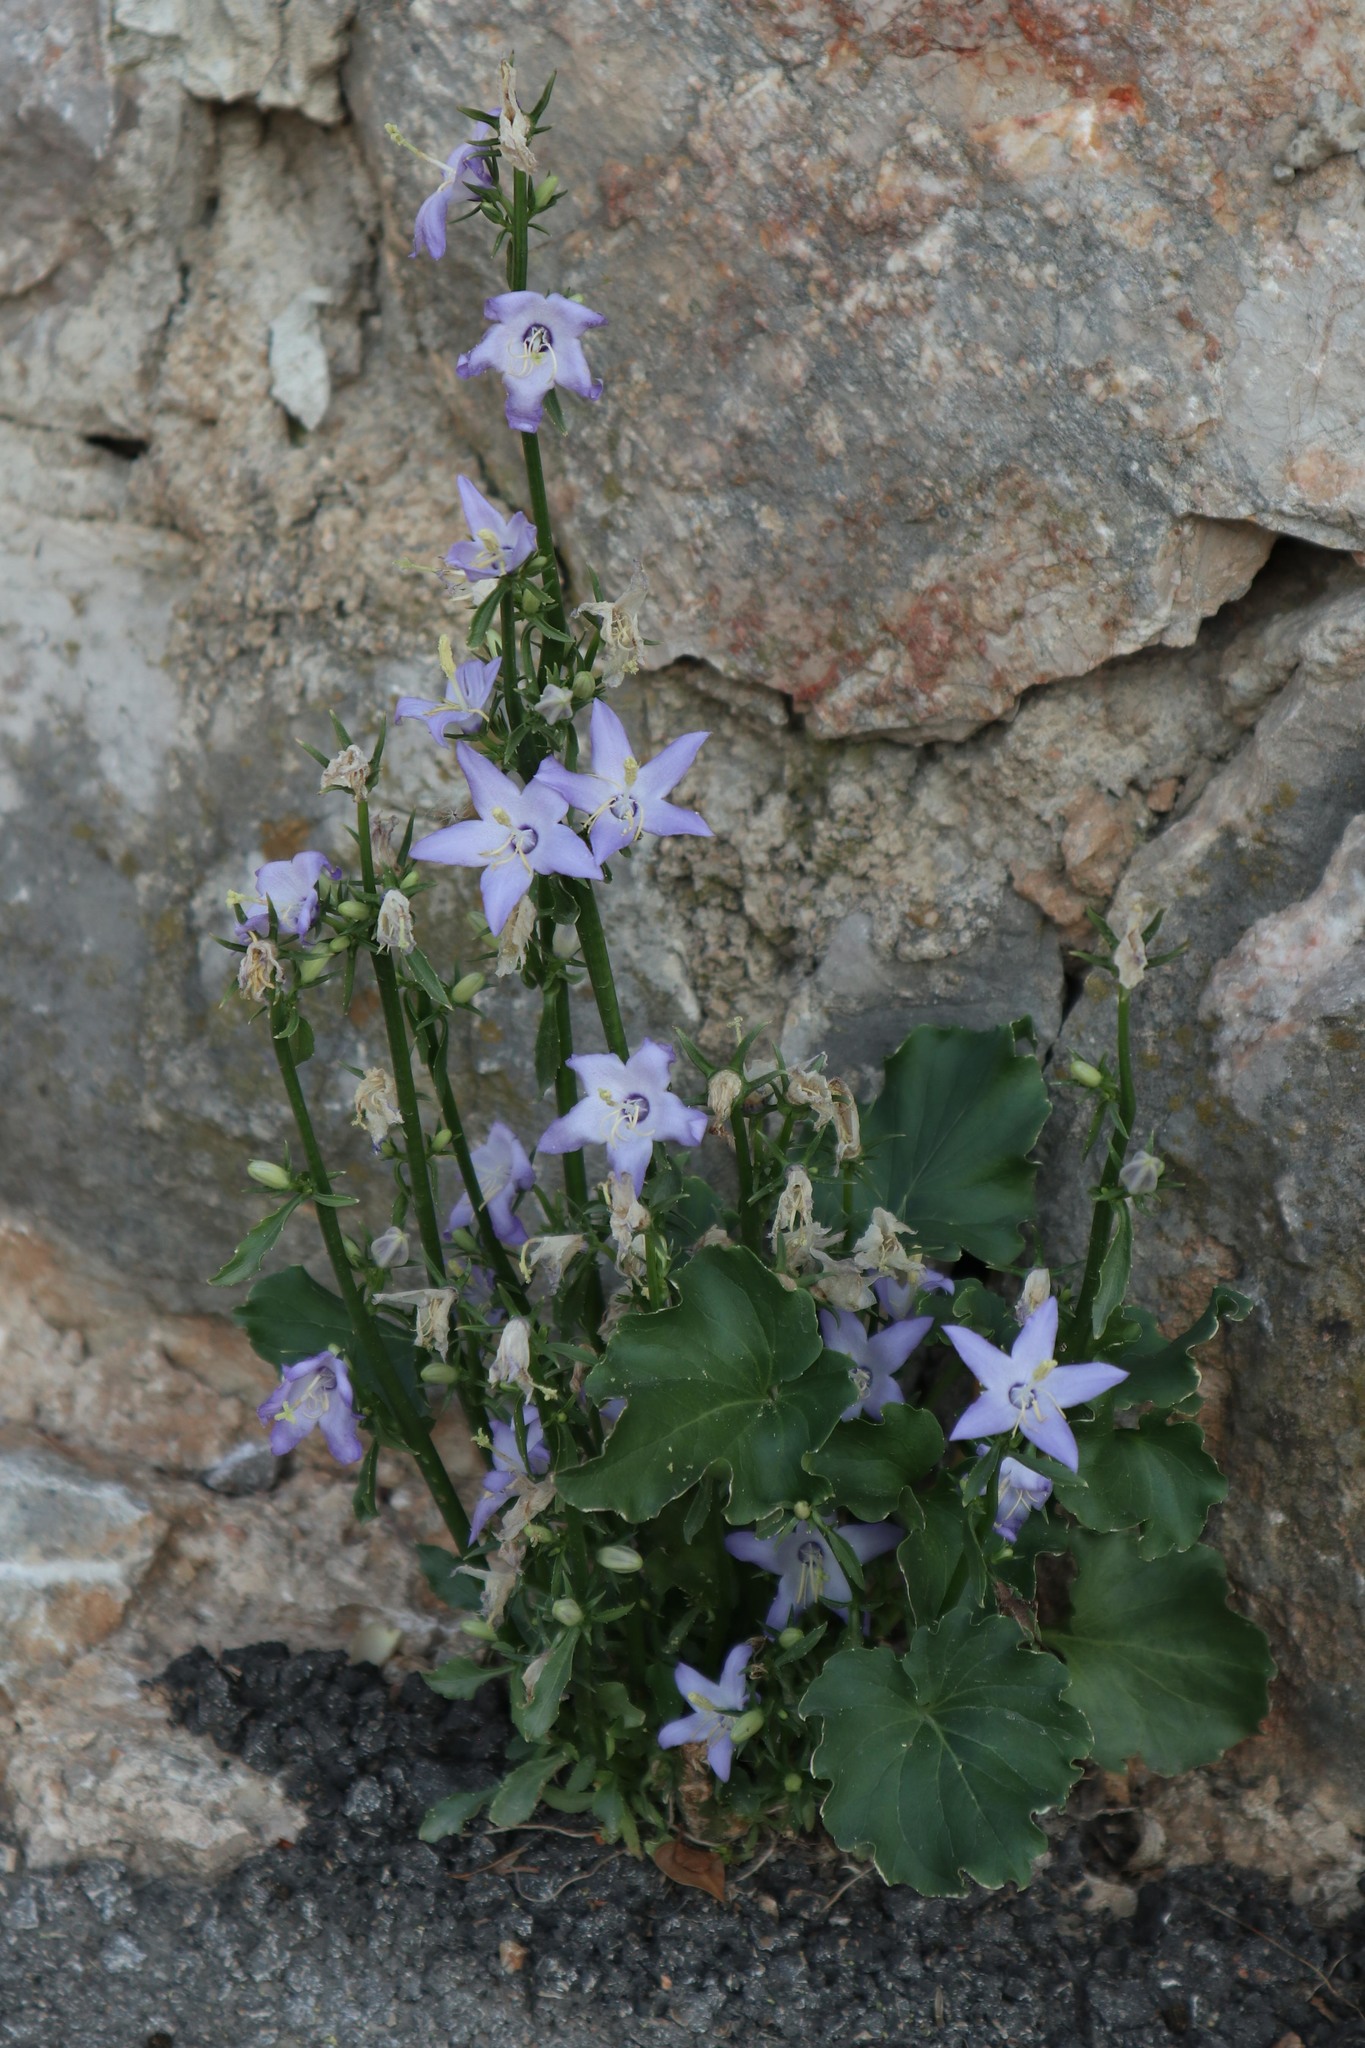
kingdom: Plantae
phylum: Tracheophyta
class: Magnoliopsida
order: Asterales
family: Campanulaceae
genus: Campanula
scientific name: Campanula pyramidalis
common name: Chimney bellflower
